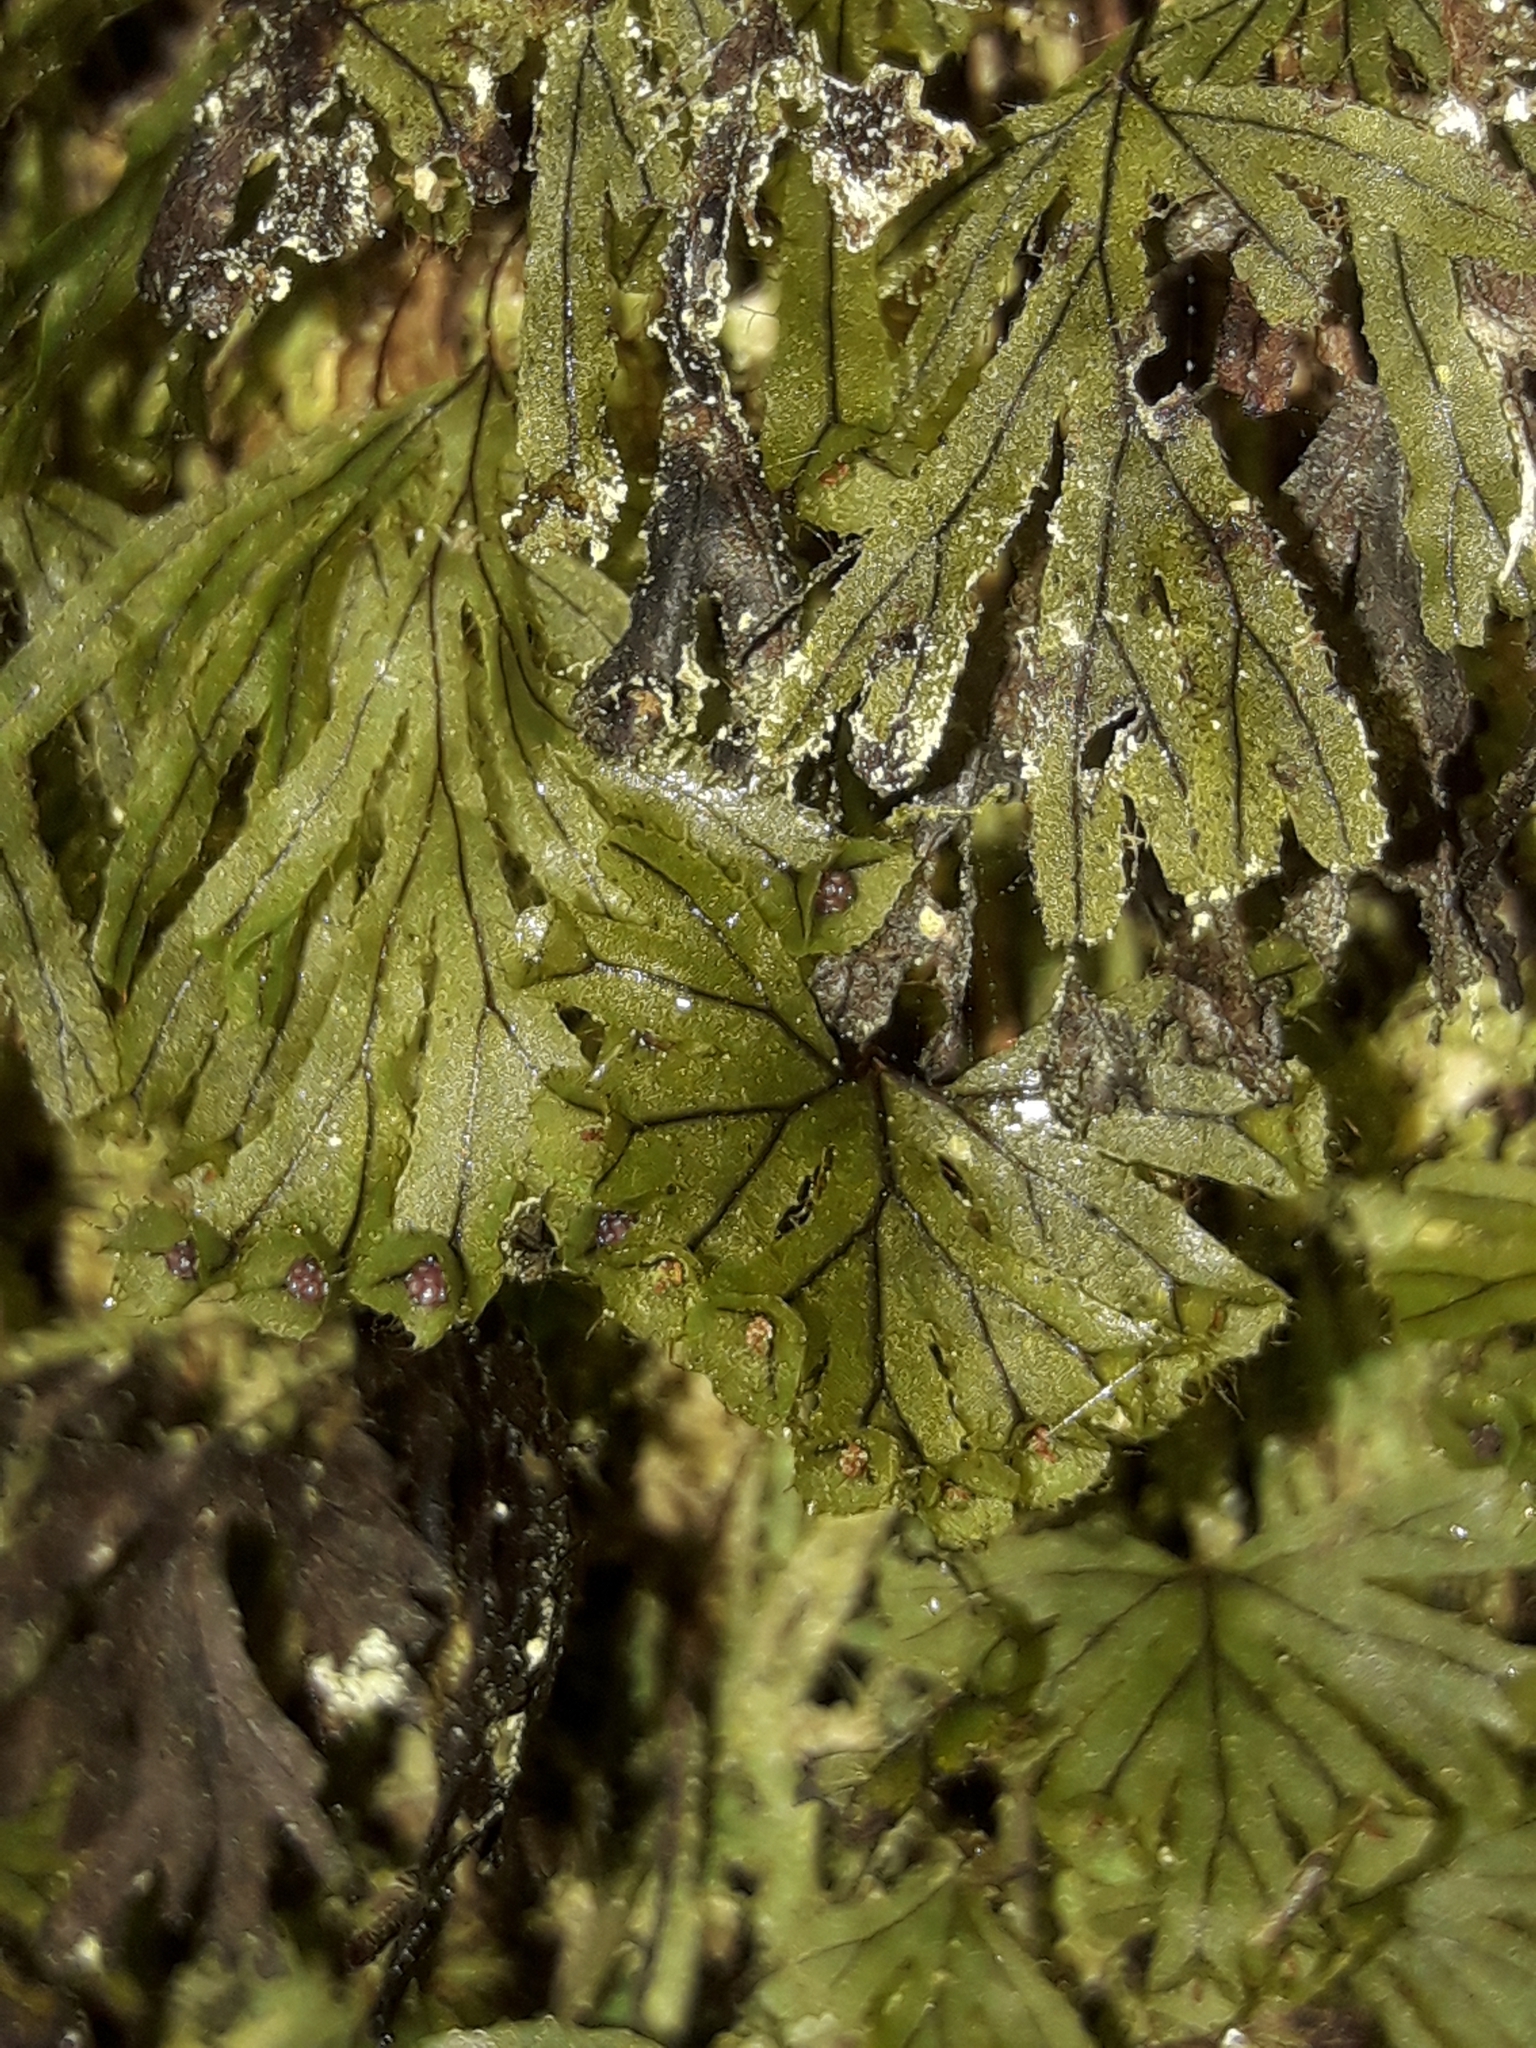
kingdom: Plantae
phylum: Tracheophyta
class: Polypodiopsida
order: Hymenophyllales
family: Hymenophyllaceae
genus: Hymenophyllum
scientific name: Hymenophyllum lyallii
